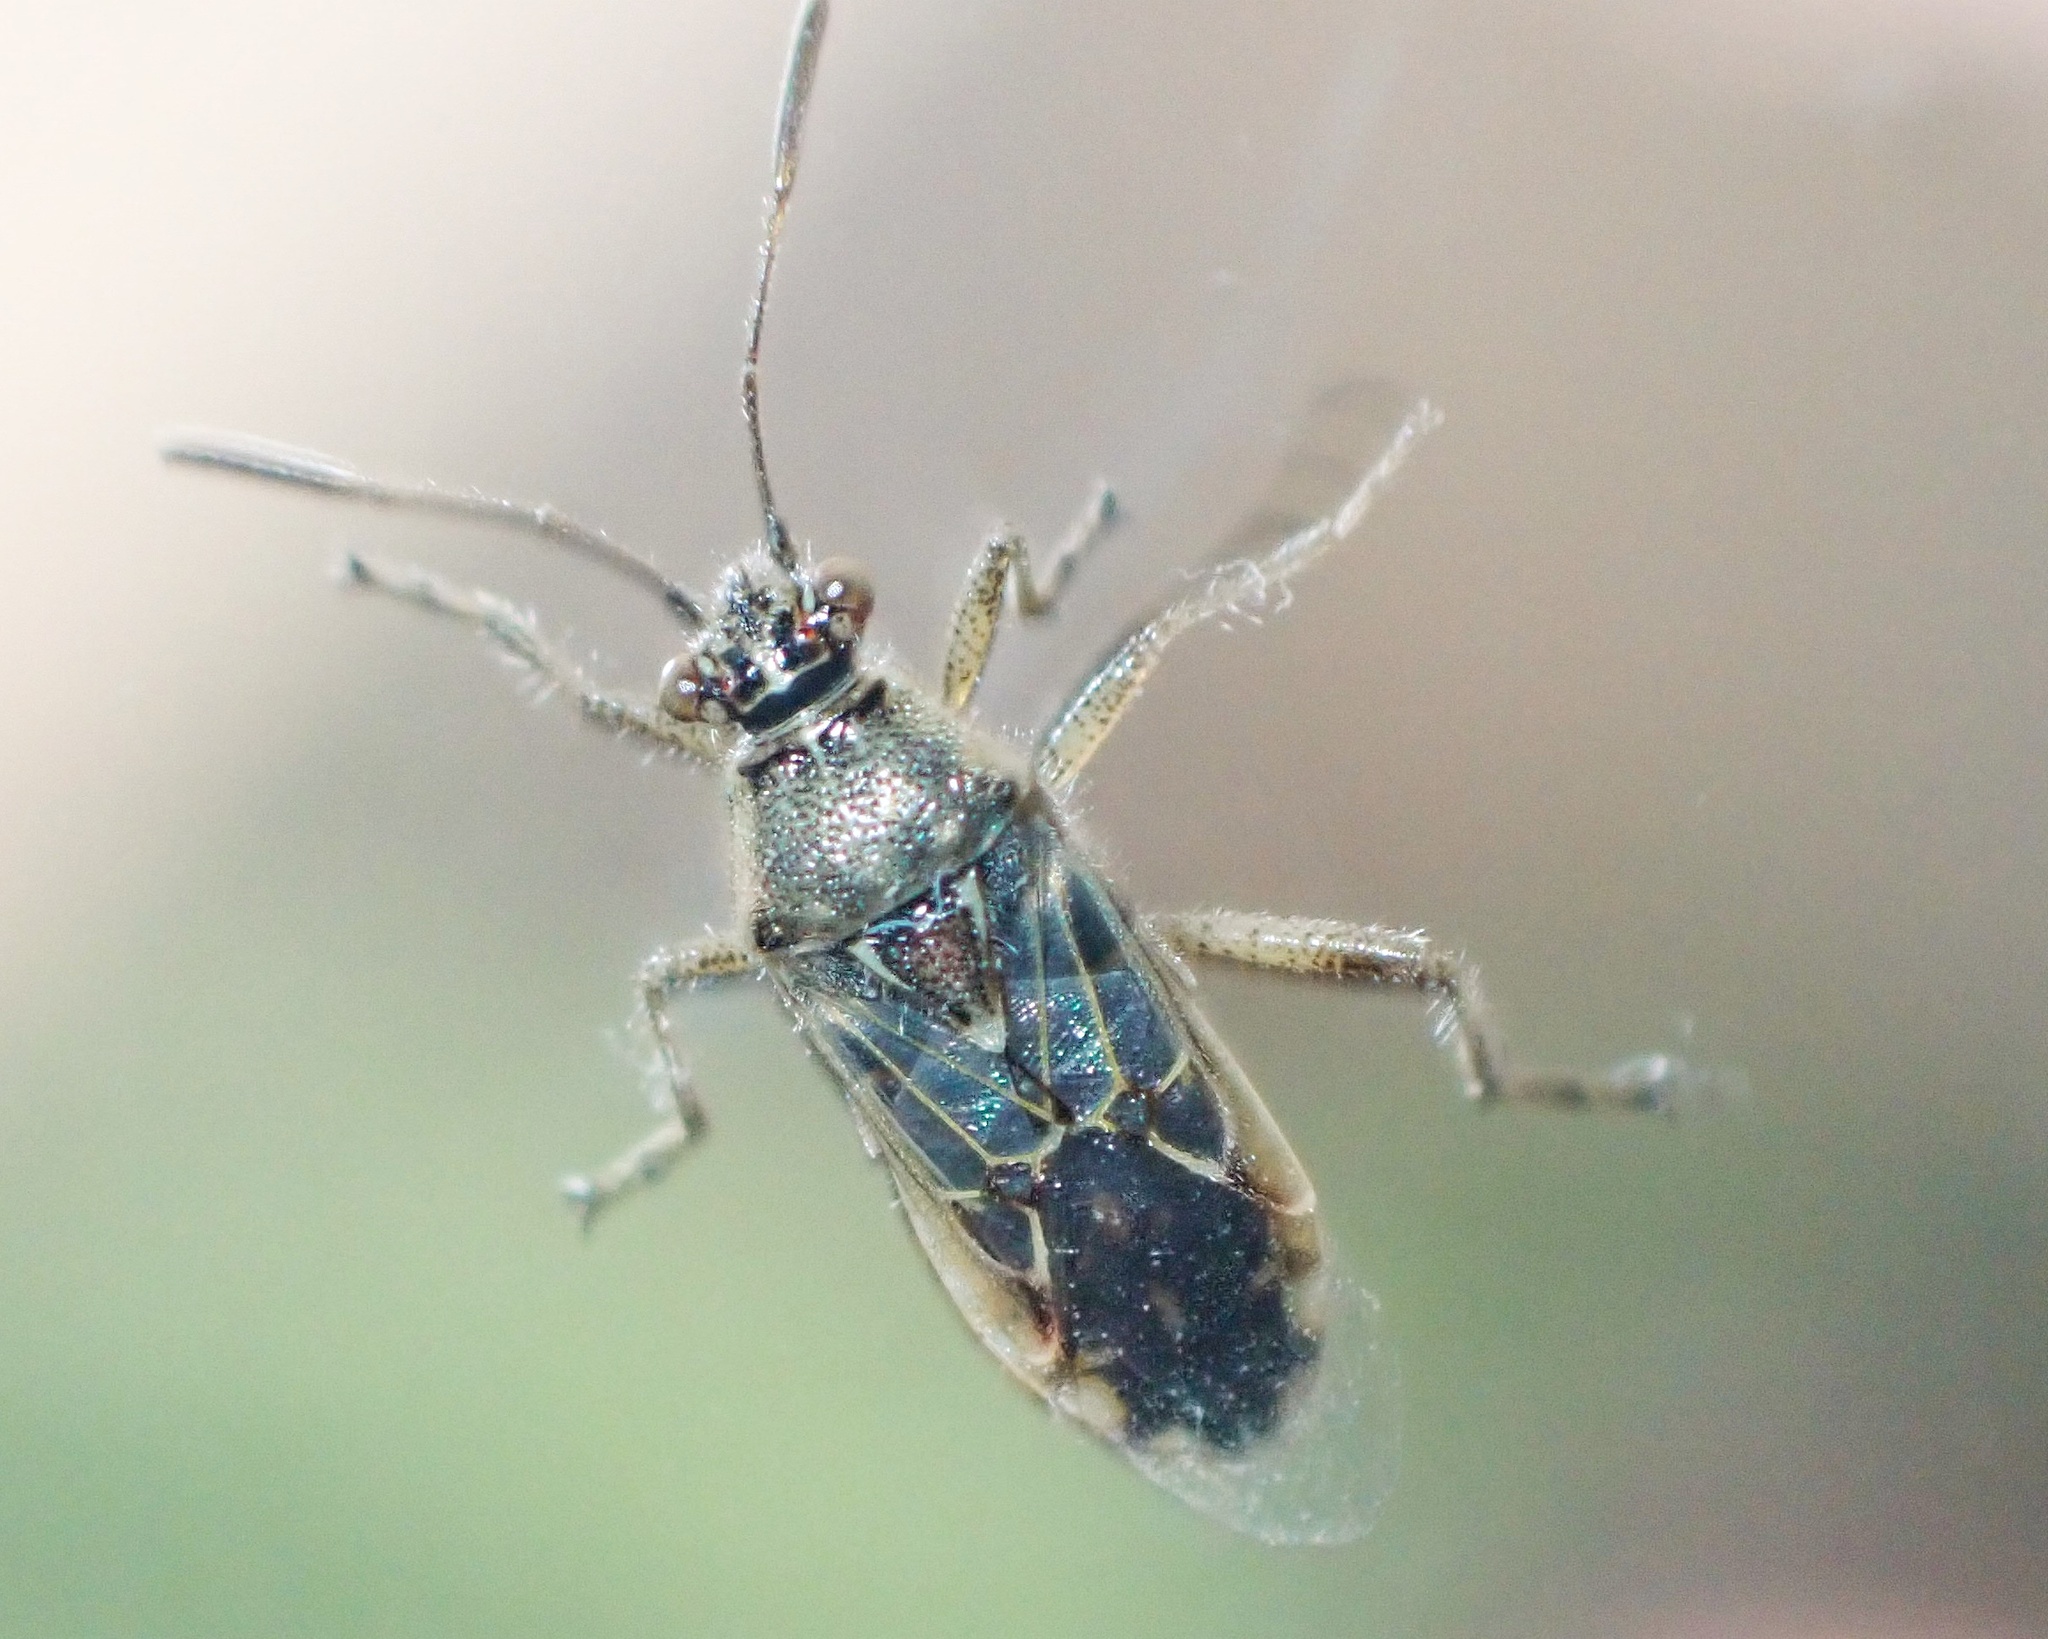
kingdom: Animalia
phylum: Arthropoda
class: Insecta
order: Hemiptera
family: Rhopalidae
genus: Liorhyssus
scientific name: Liorhyssus hyalinus
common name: Scentless plant bug
